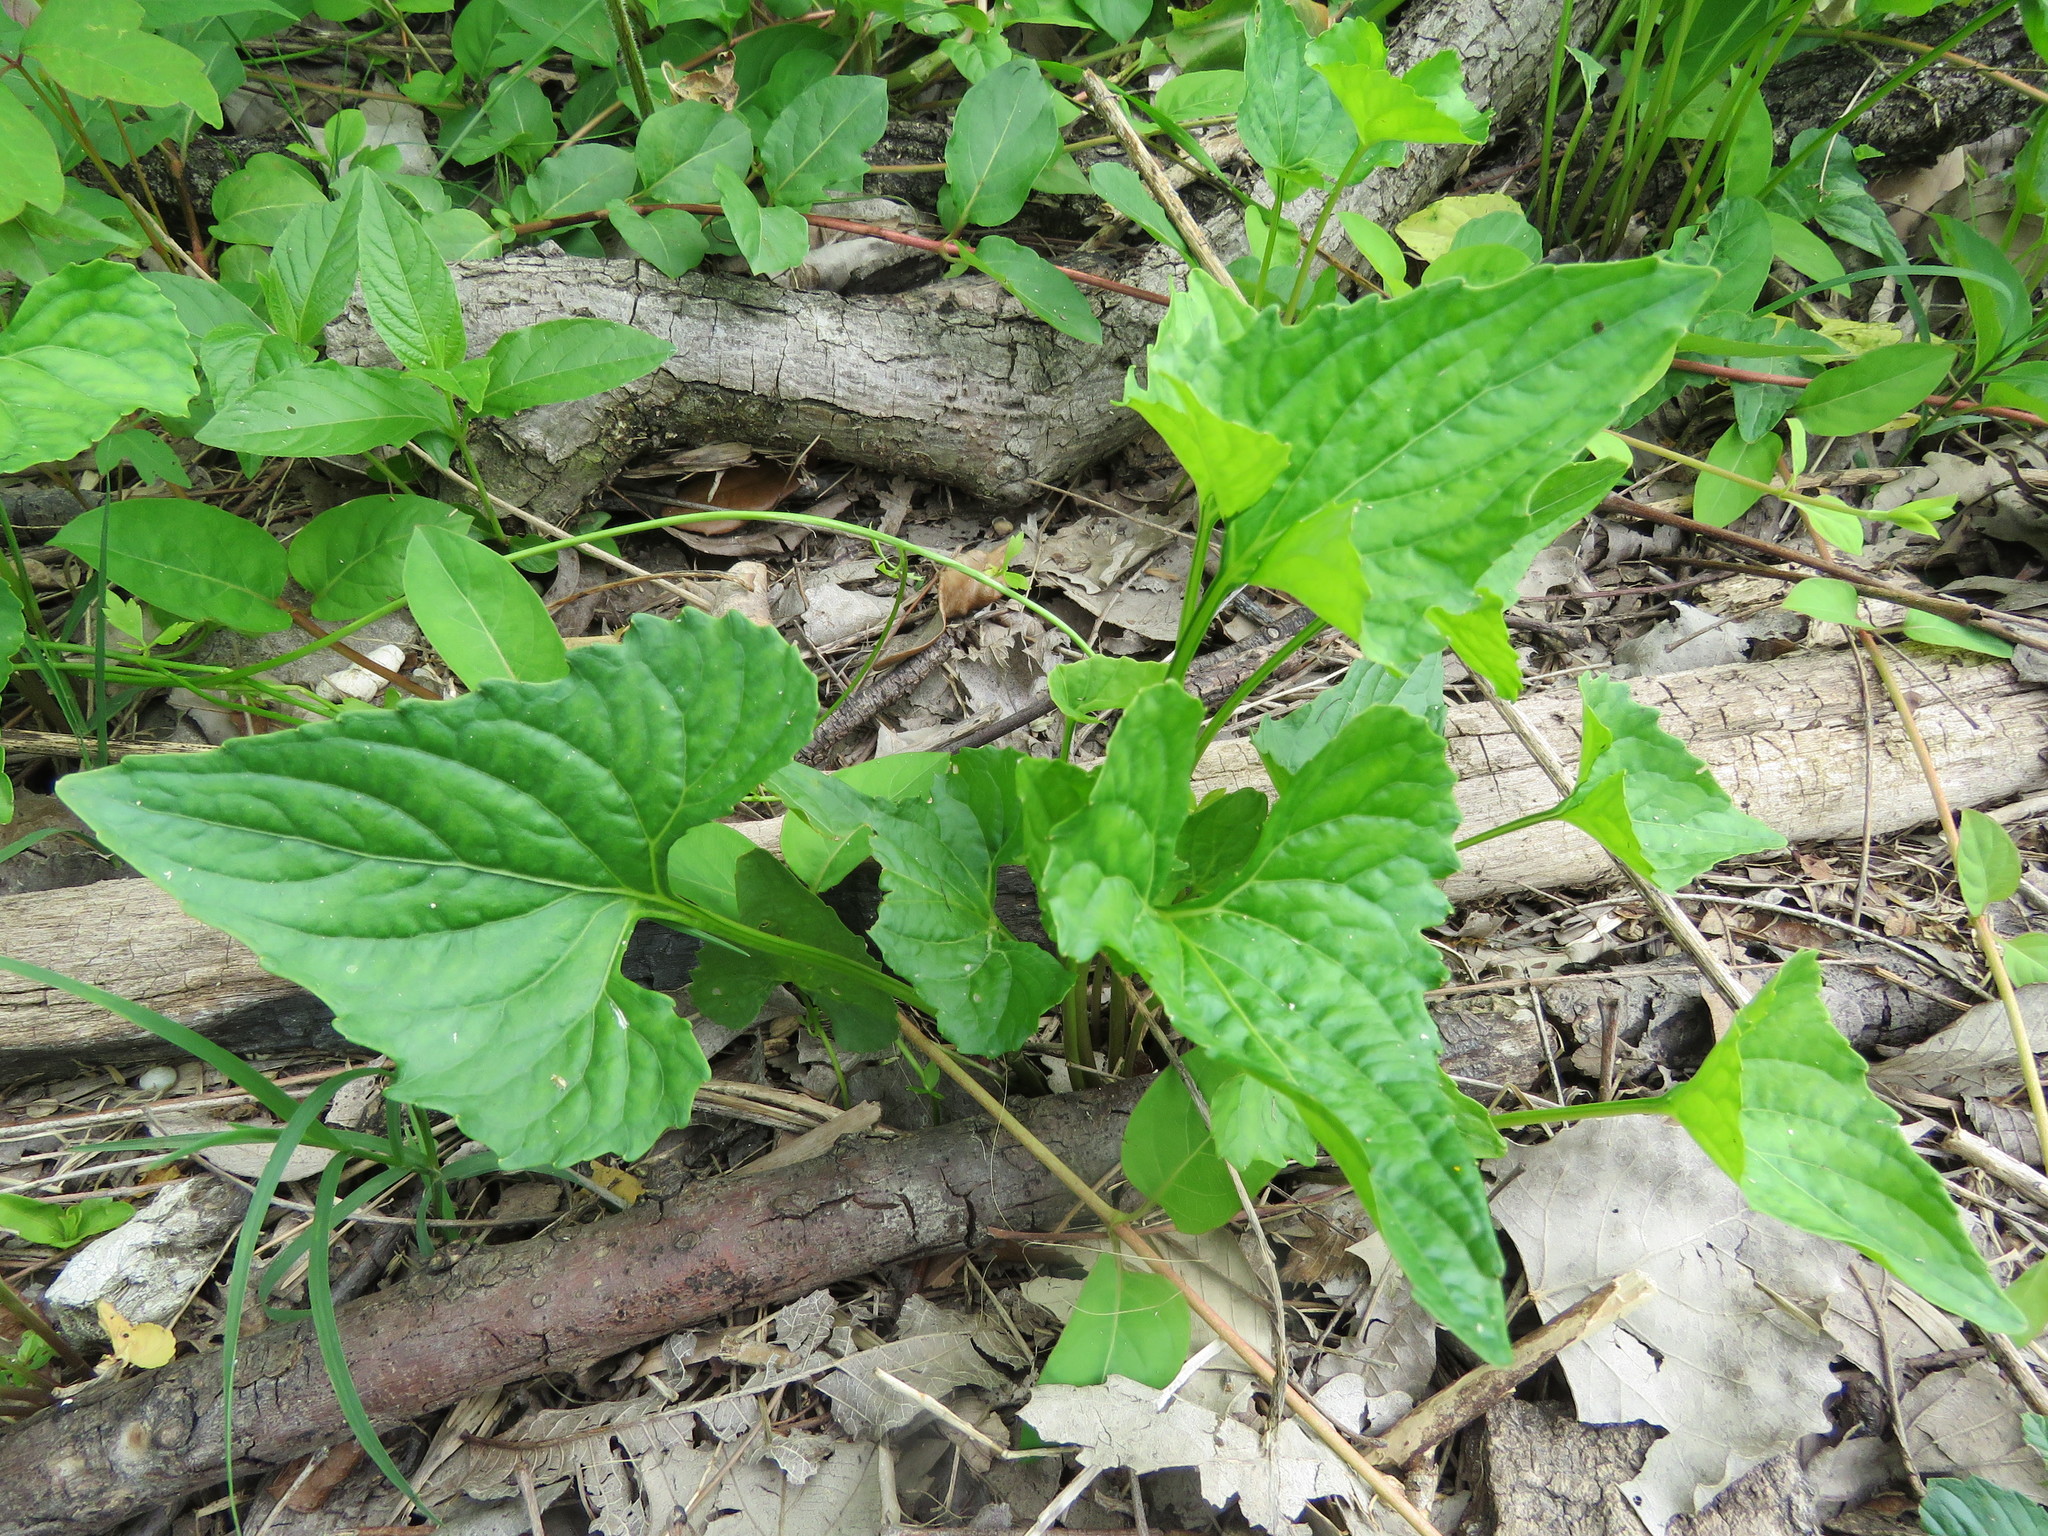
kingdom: Plantae
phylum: Tracheophyta
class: Magnoliopsida
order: Malpighiales
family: Violaceae
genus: Viola
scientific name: Viola sororia
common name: Dooryard violet
